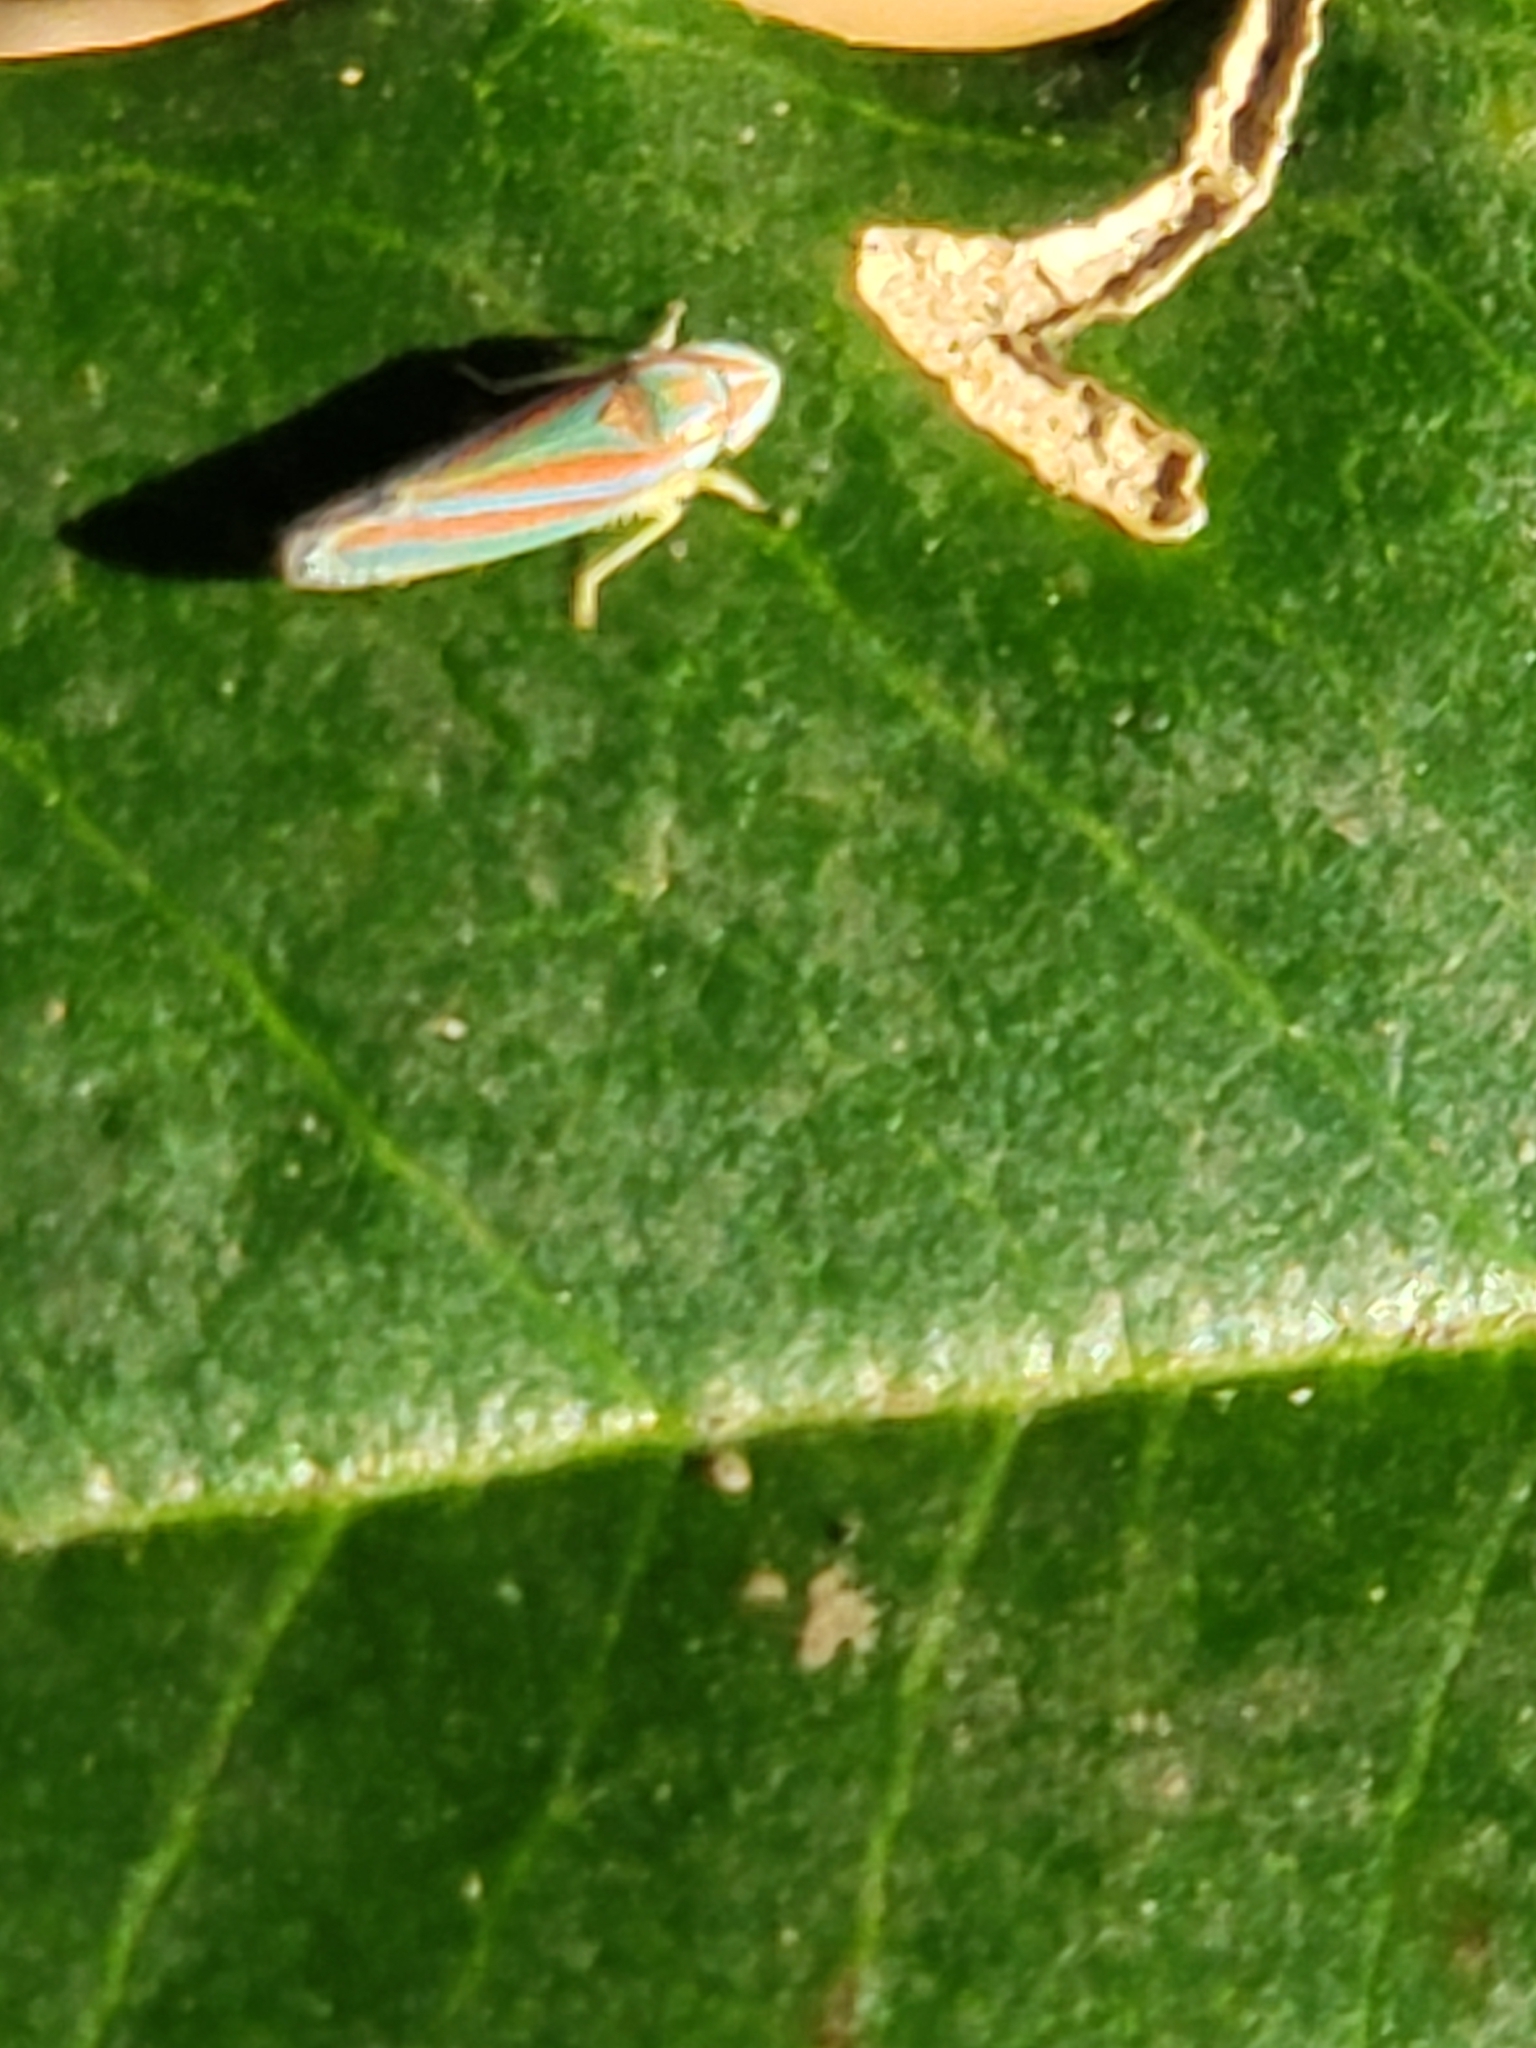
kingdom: Animalia
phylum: Arthropoda
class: Insecta
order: Hemiptera
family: Cicadellidae
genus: Graphocephala
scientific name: Graphocephala versuta
